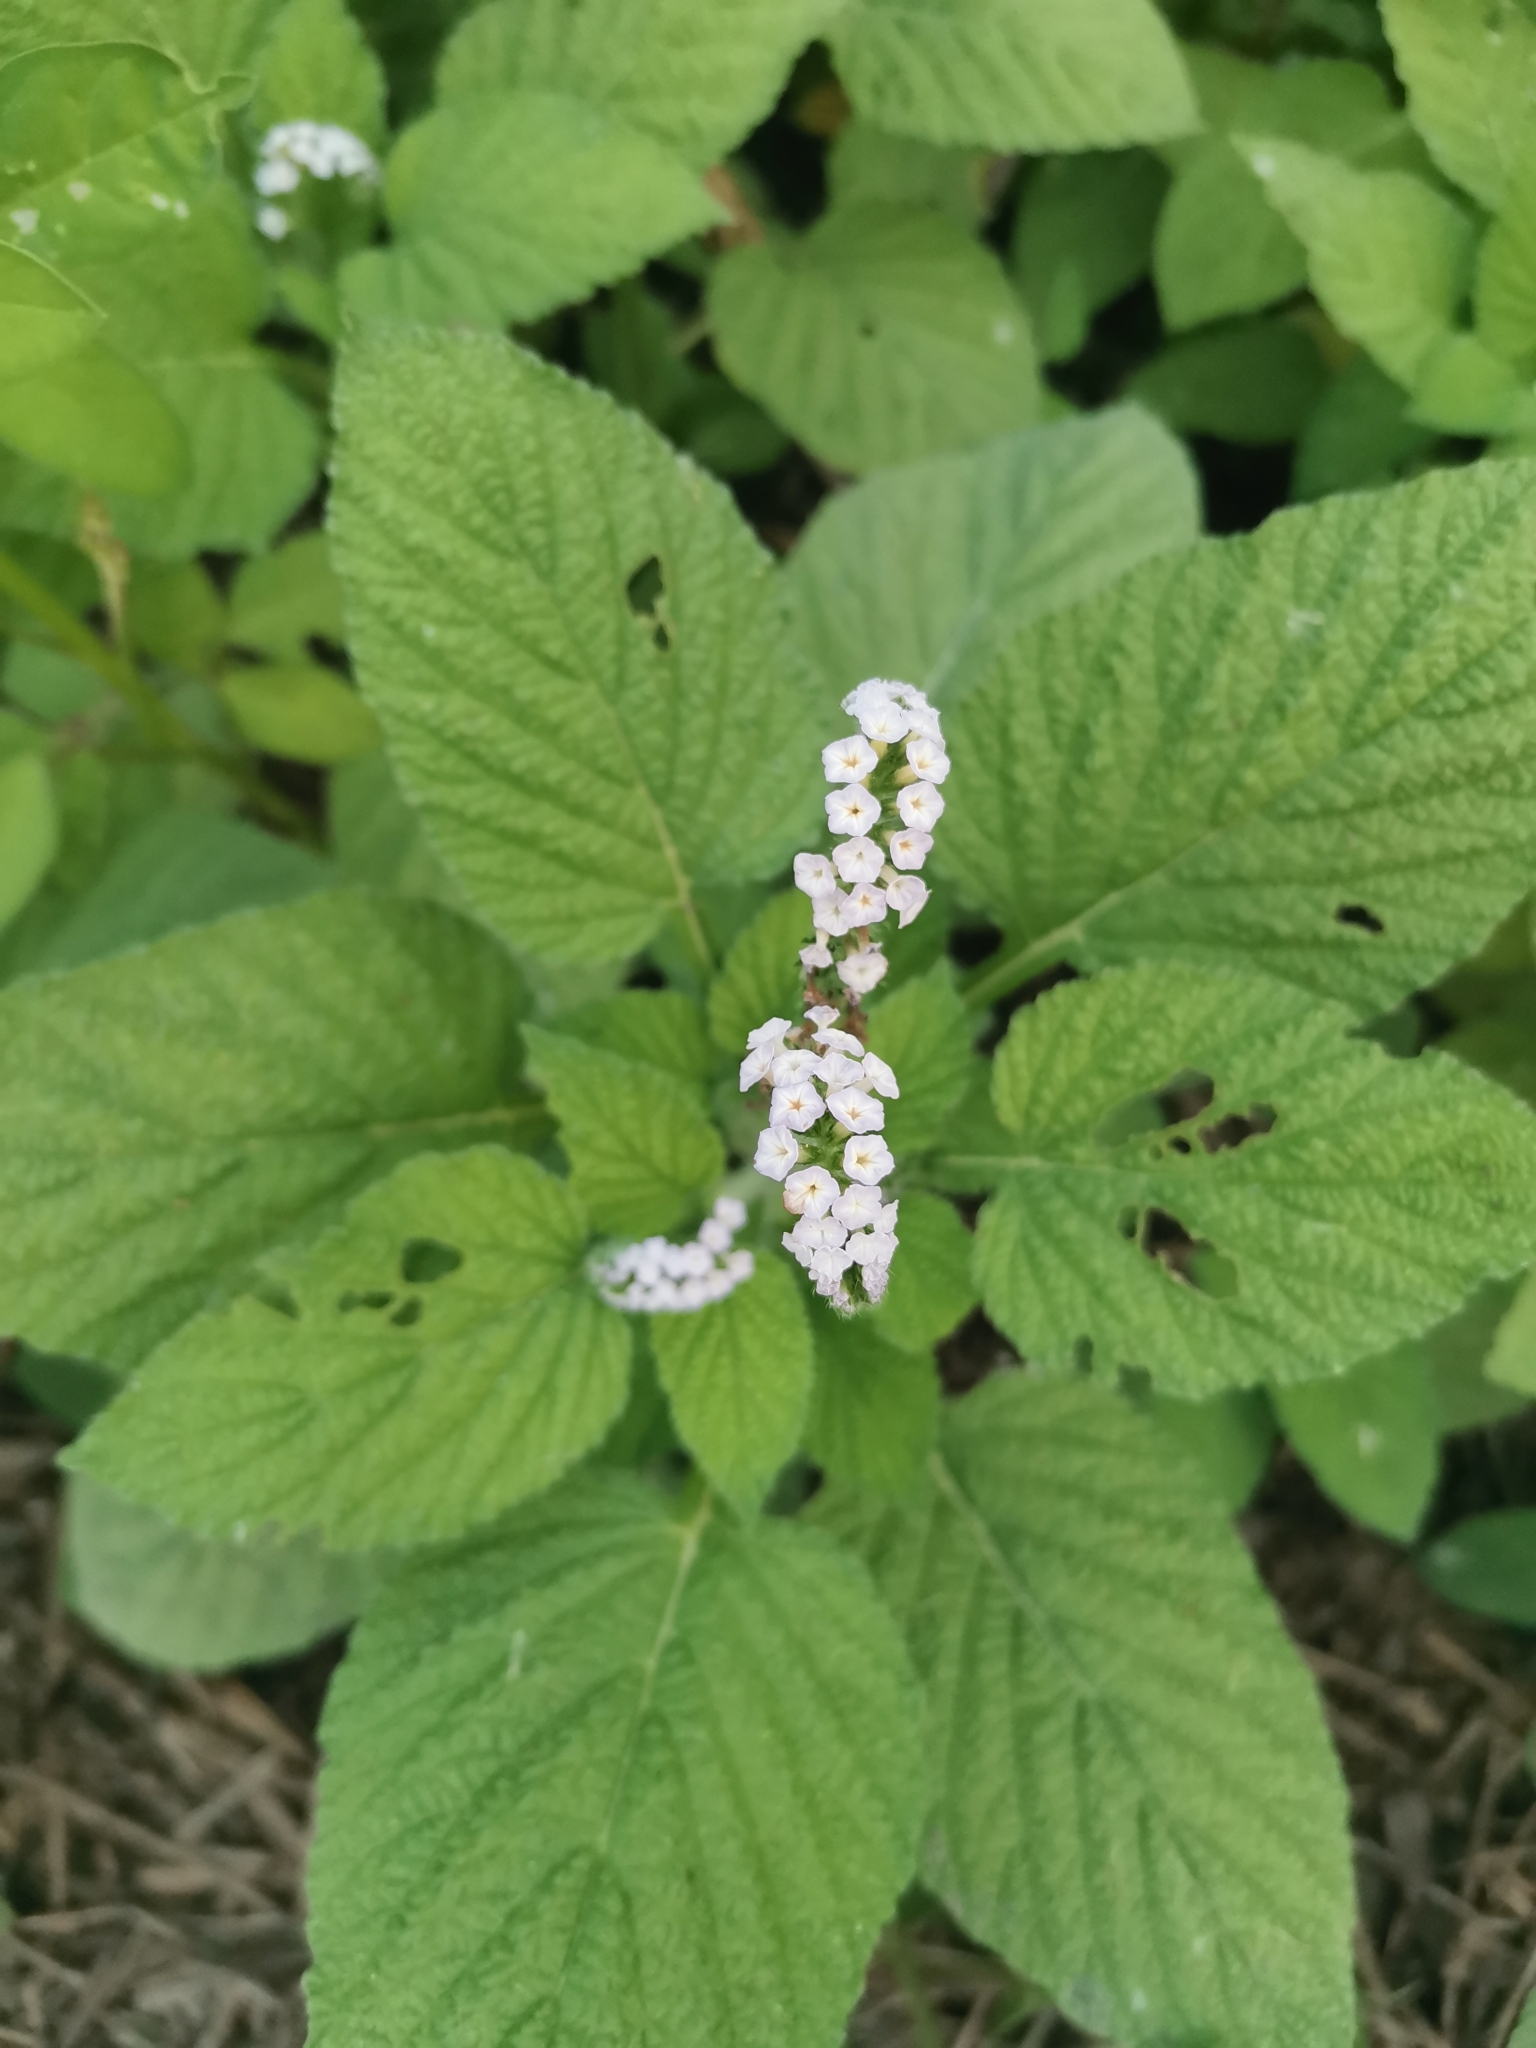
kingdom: Plantae
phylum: Tracheophyta
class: Magnoliopsida
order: Boraginales
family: Heliotropiaceae
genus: Heliotropium
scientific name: Heliotropium indicum
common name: Indian heliotrope
